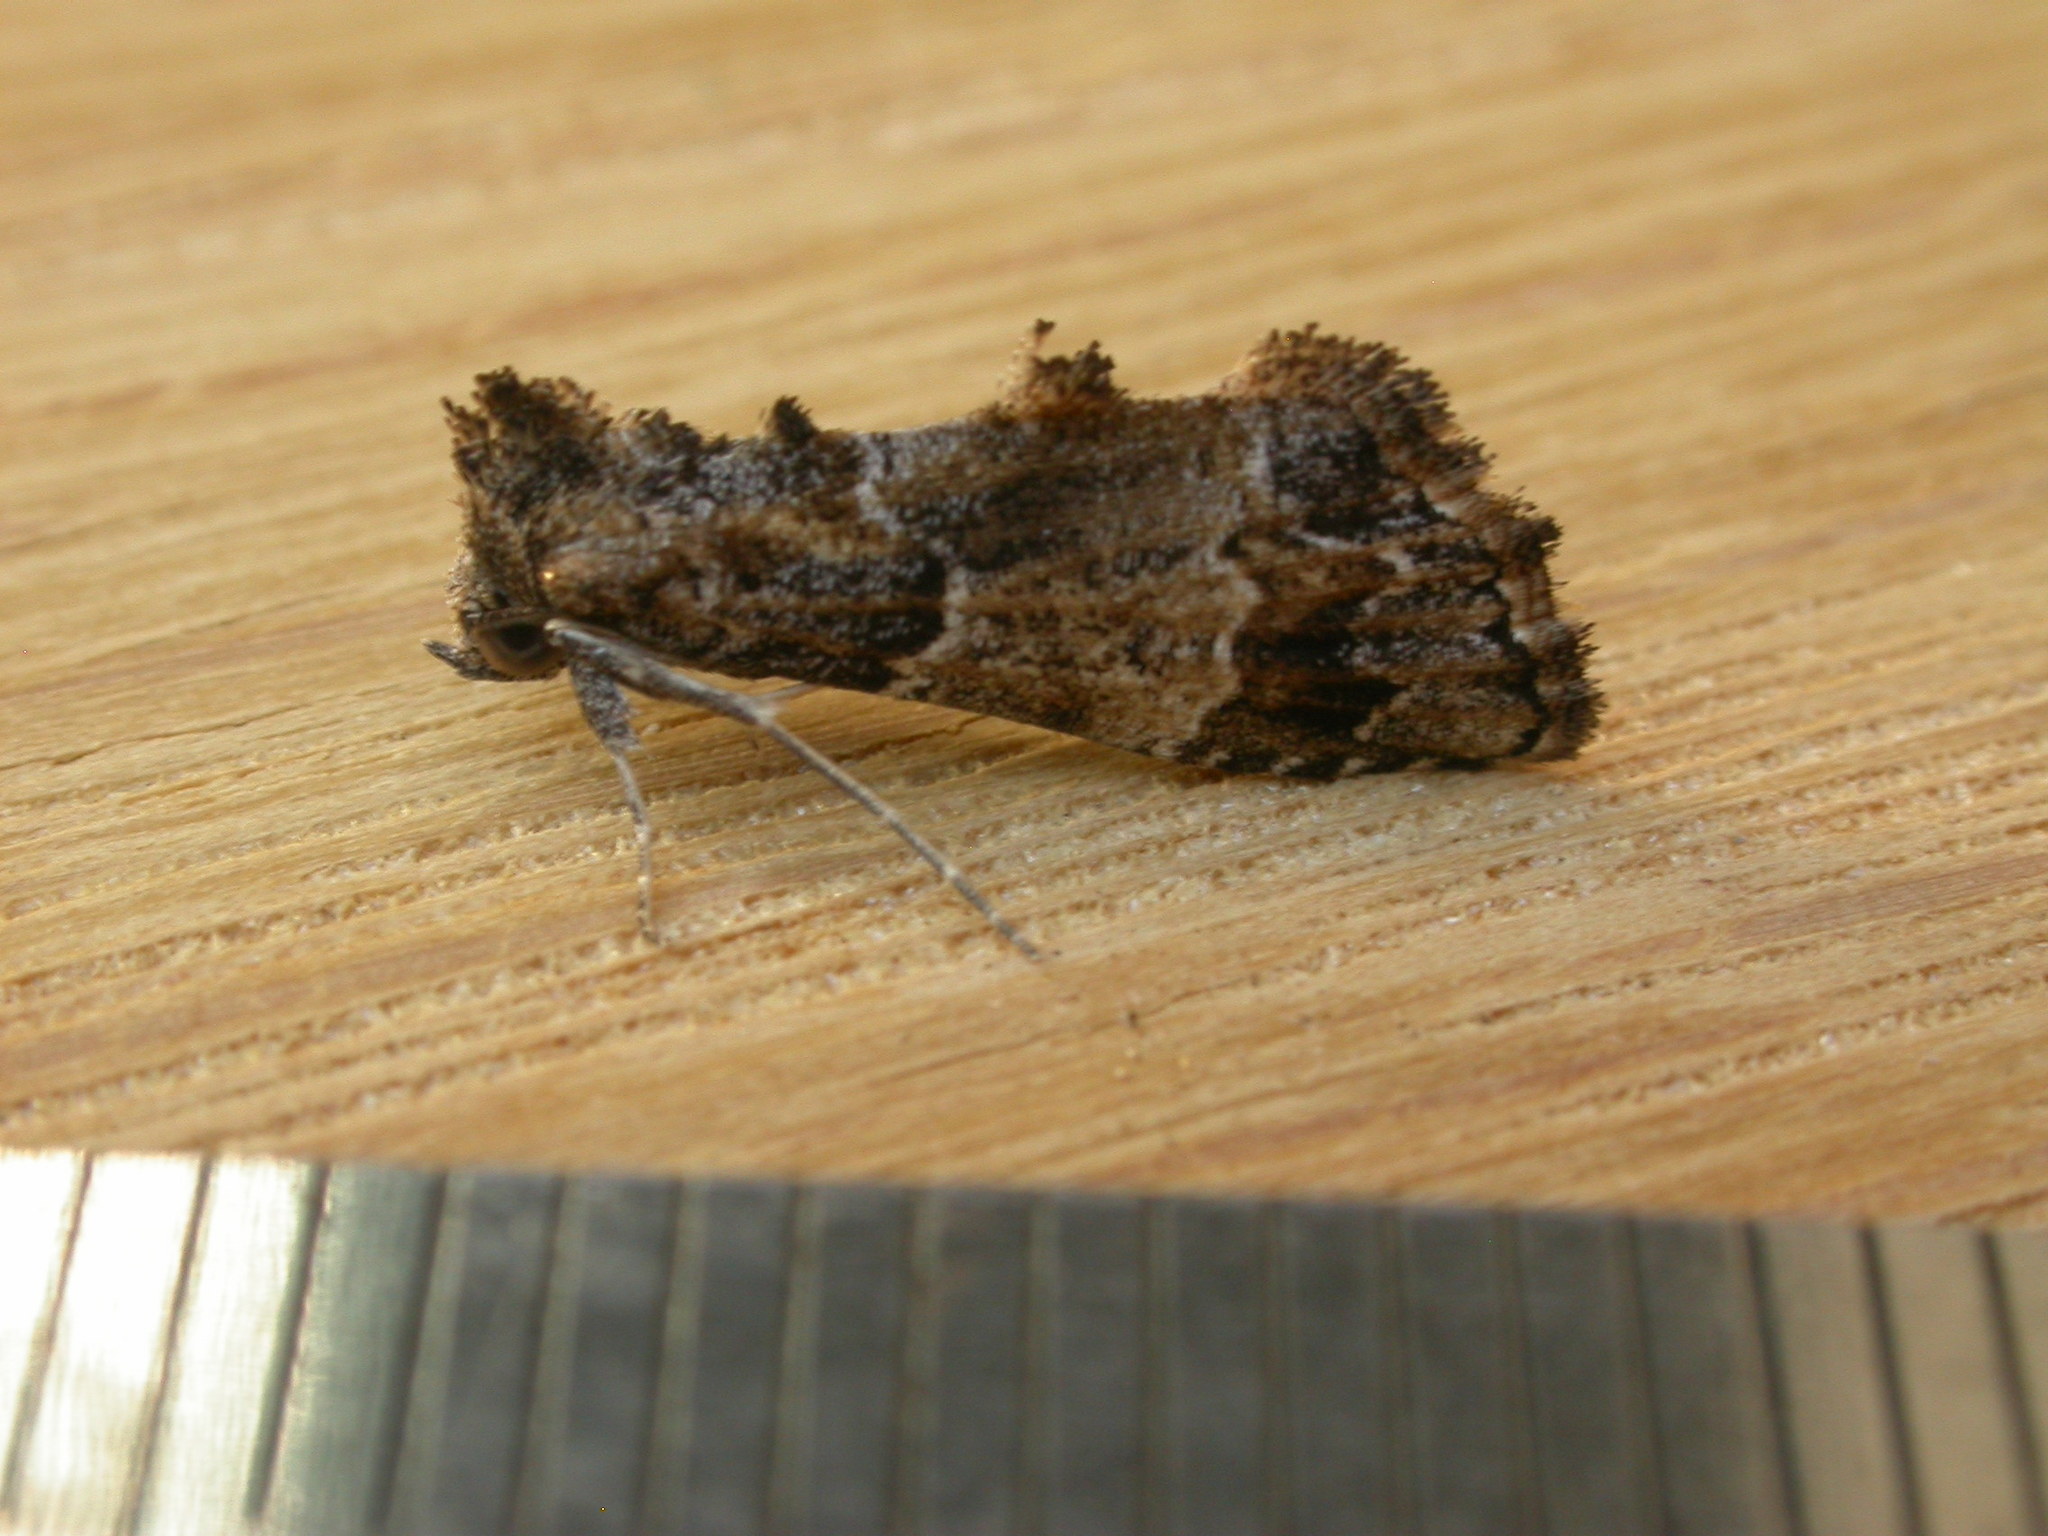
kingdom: Animalia
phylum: Arthropoda
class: Insecta
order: Lepidoptera
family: Erebidae
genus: Arrade
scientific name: Arrade destituta
